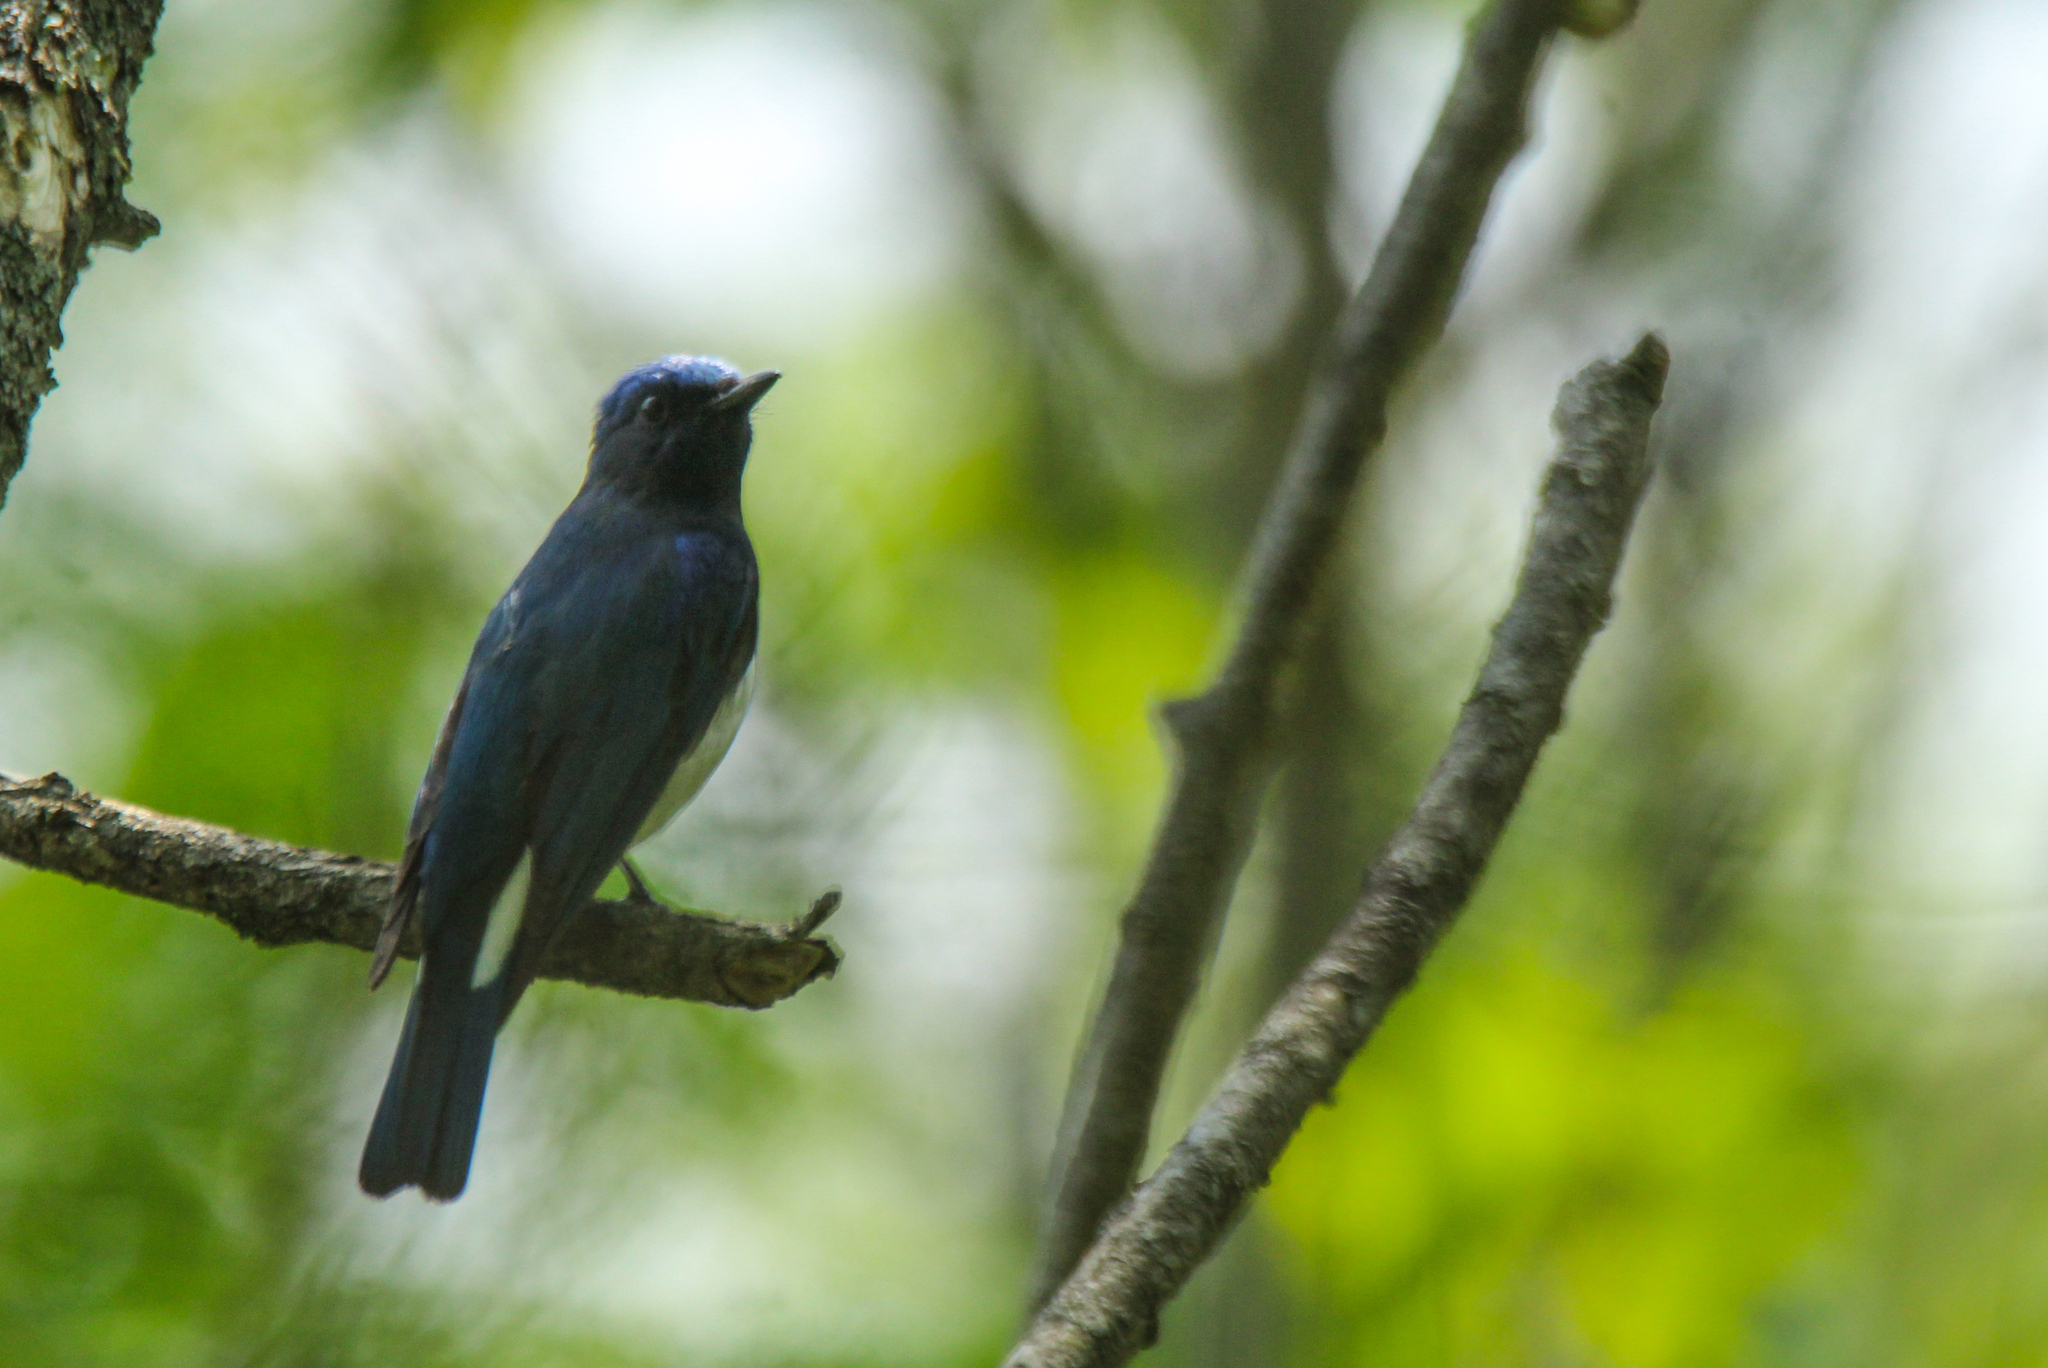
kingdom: Animalia
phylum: Chordata
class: Aves
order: Passeriformes
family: Muscicapidae
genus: Cyanoptila
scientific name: Cyanoptila cyanomelana
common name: Blue-and-white flycatcher
